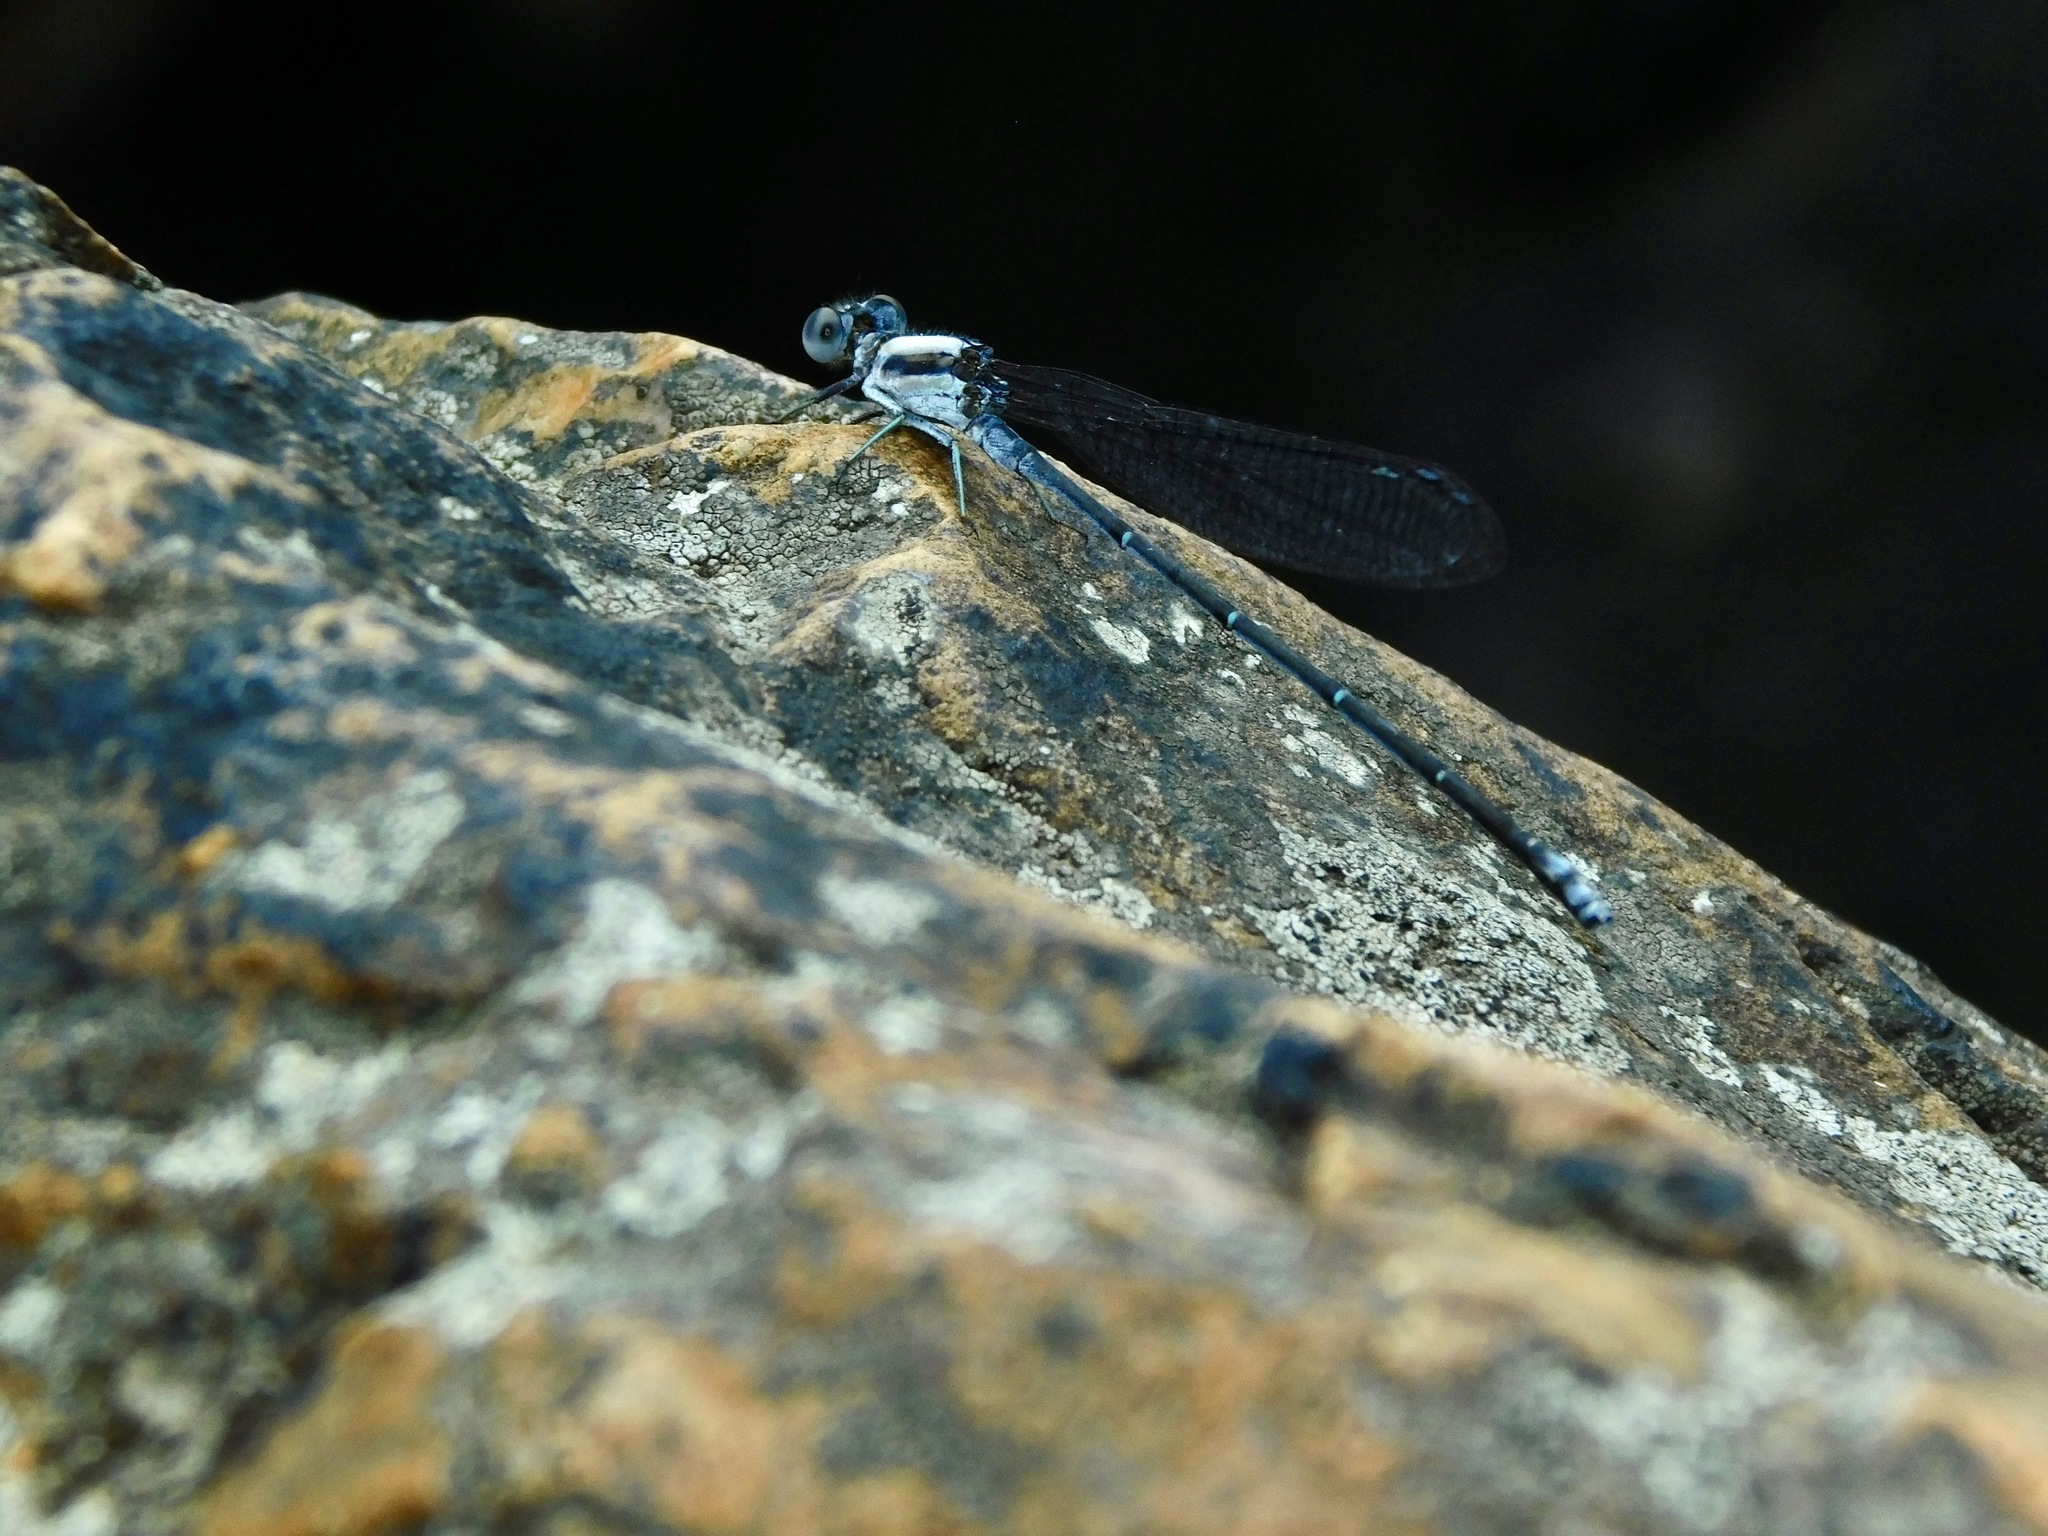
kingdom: Animalia
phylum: Arthropoda
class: Insecta
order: Odonata
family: Coenagrionidae
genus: Argia
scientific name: Argia moesta
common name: Powdered dancer
